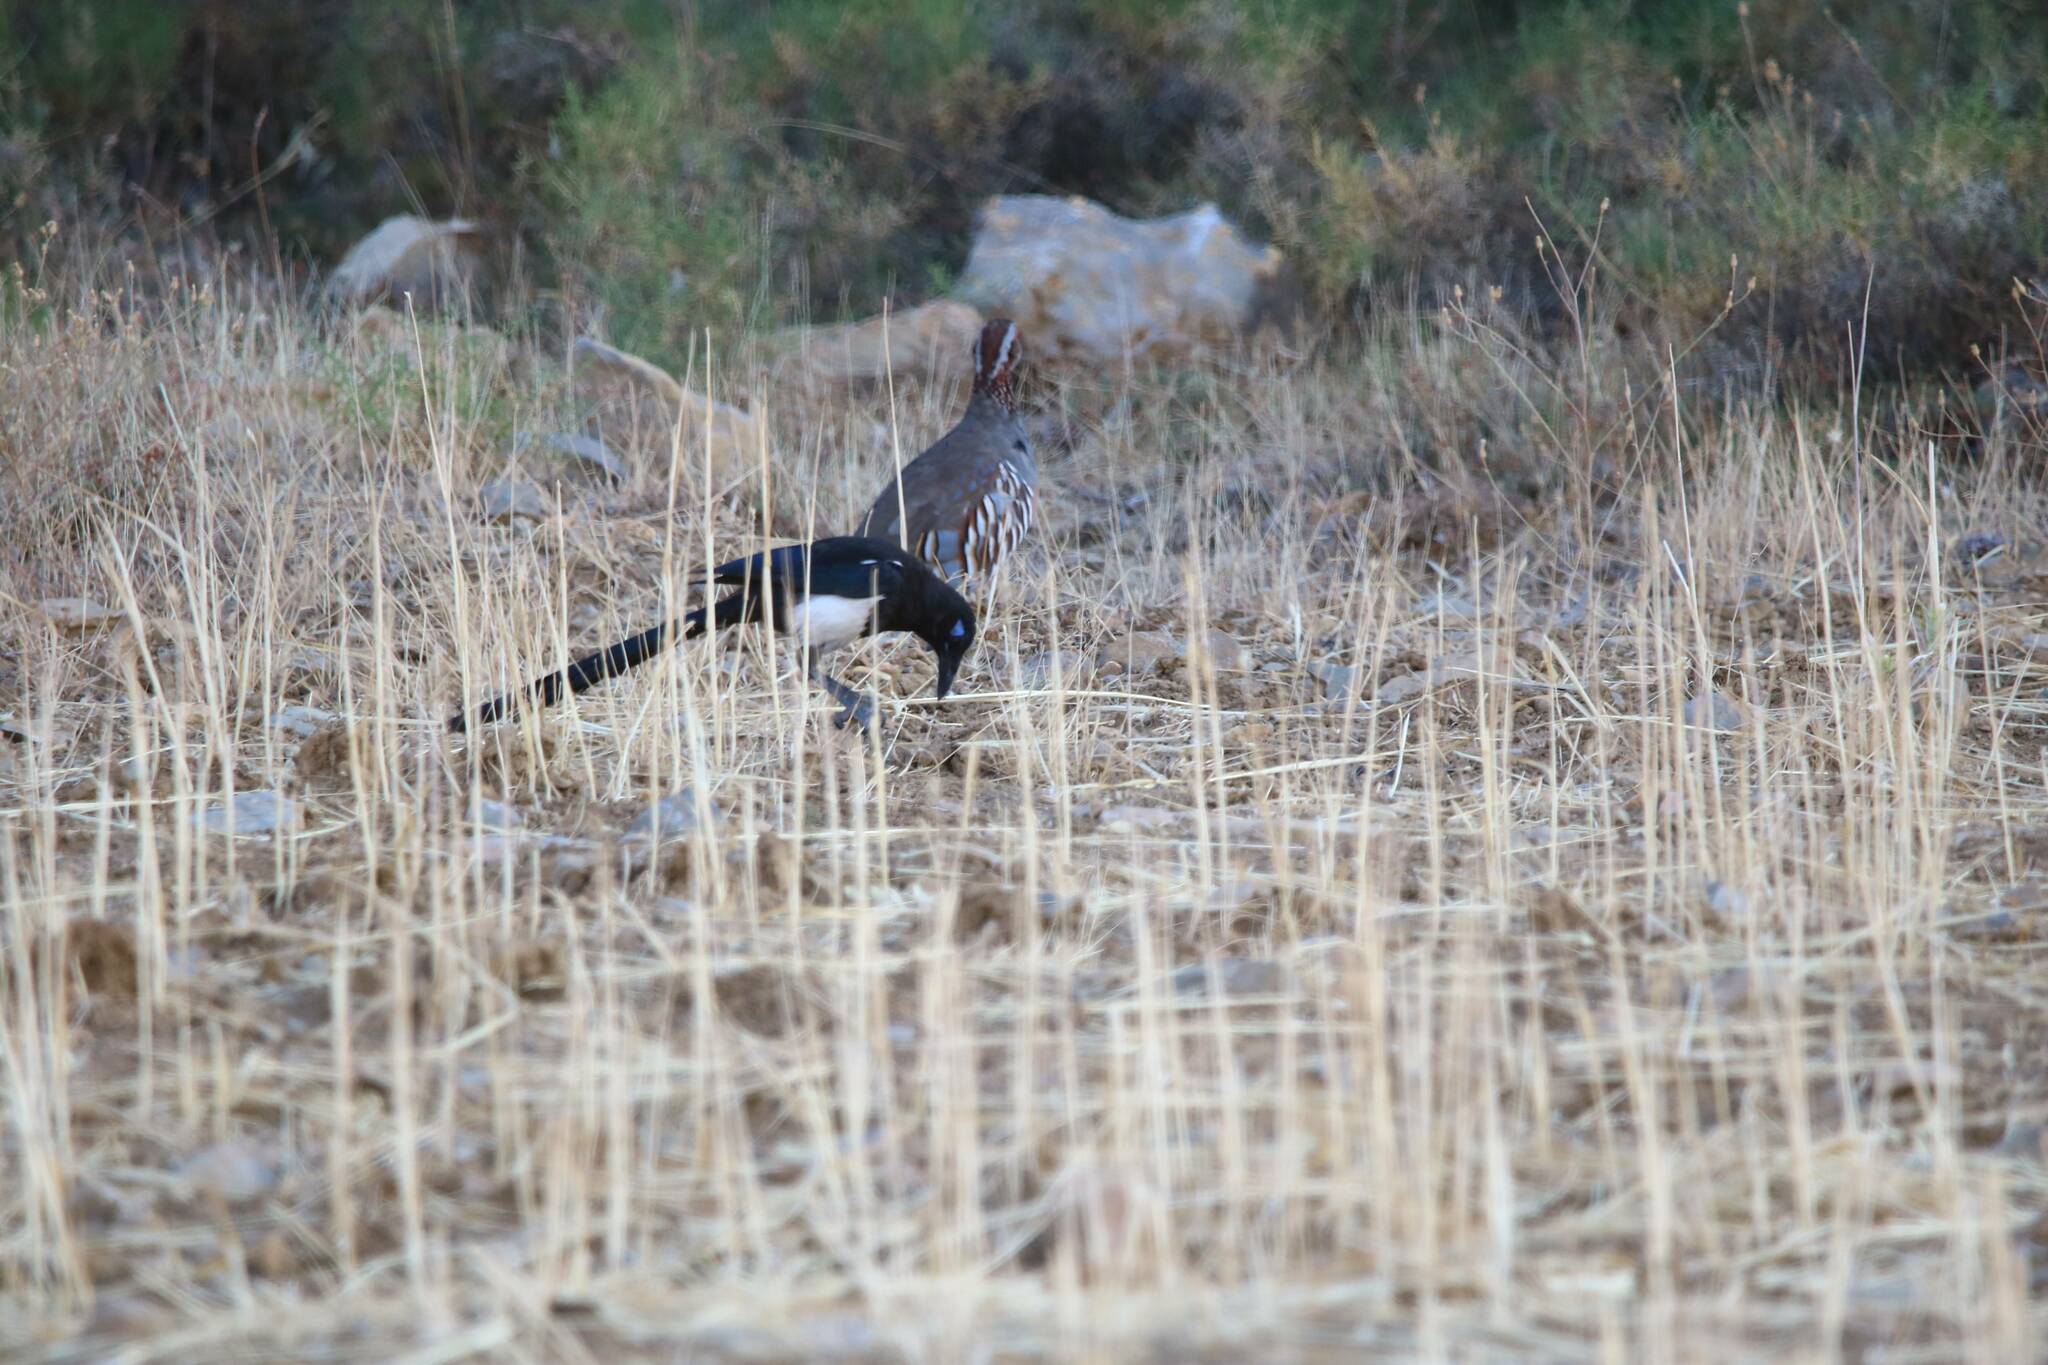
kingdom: Animalia
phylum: Chordata
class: Aves
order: Passeriformes
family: Corvidae
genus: Pica
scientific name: Pica mauritanica
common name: Maghreb magpie
